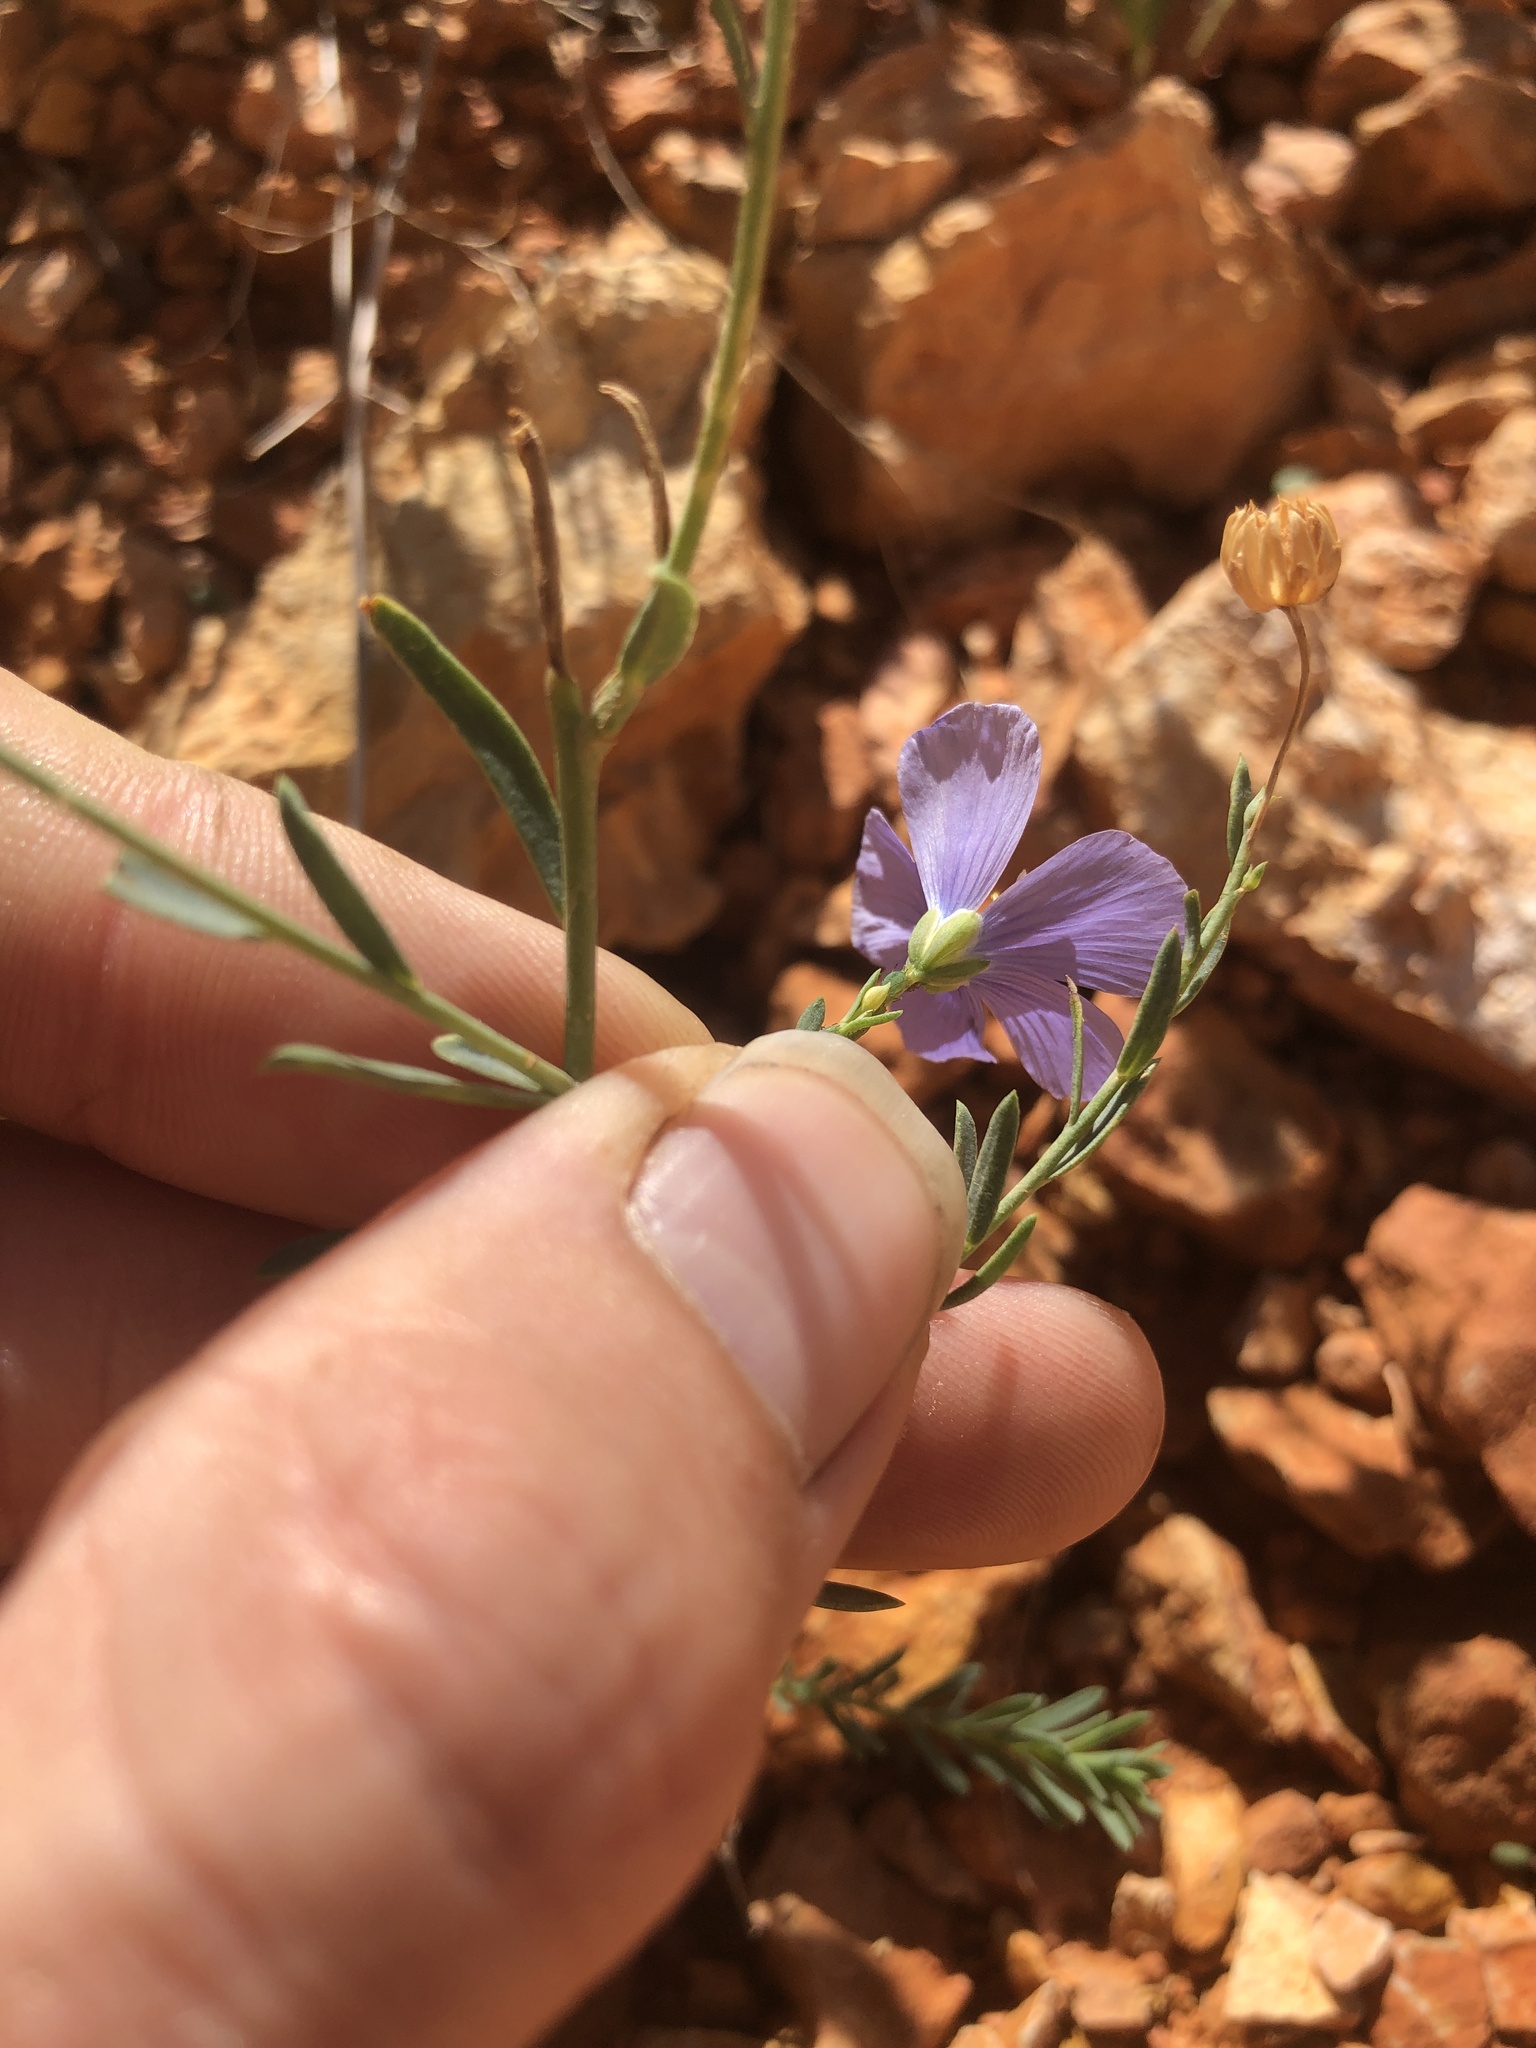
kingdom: Plantae
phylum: Tracheophyta
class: Magnoliopsida
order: Malpighiales
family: Linaceae
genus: Linum
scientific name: Linum lewisii
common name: Prairie flax
